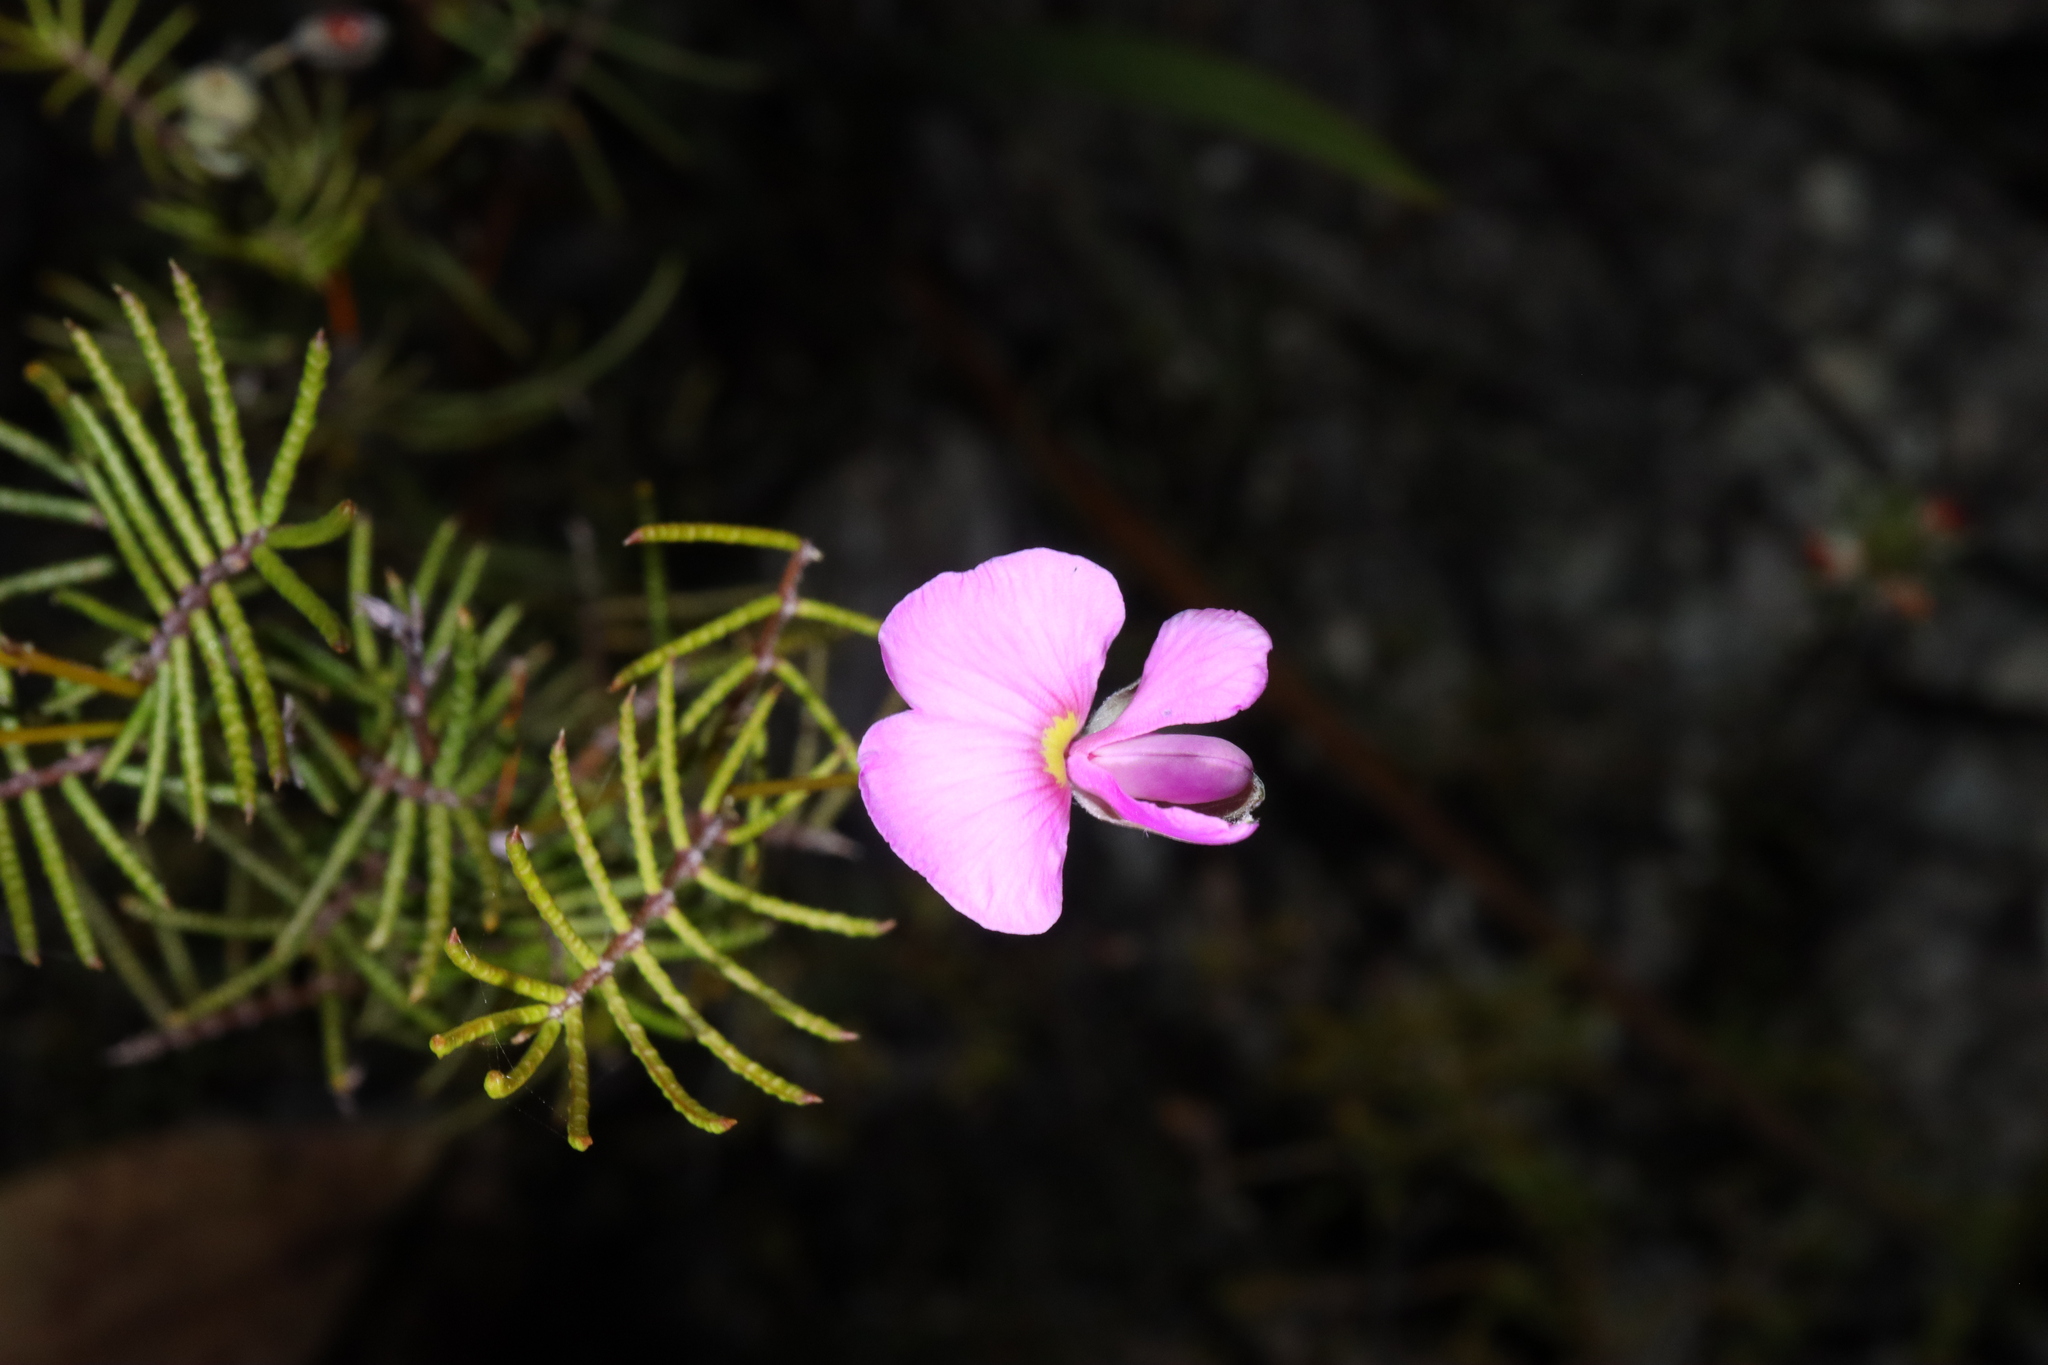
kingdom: Plantae
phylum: Tracheophyta
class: Magnoliopsida
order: Fabales
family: Fabaceae
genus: Gompholobium
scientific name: Gompholobium venustum
